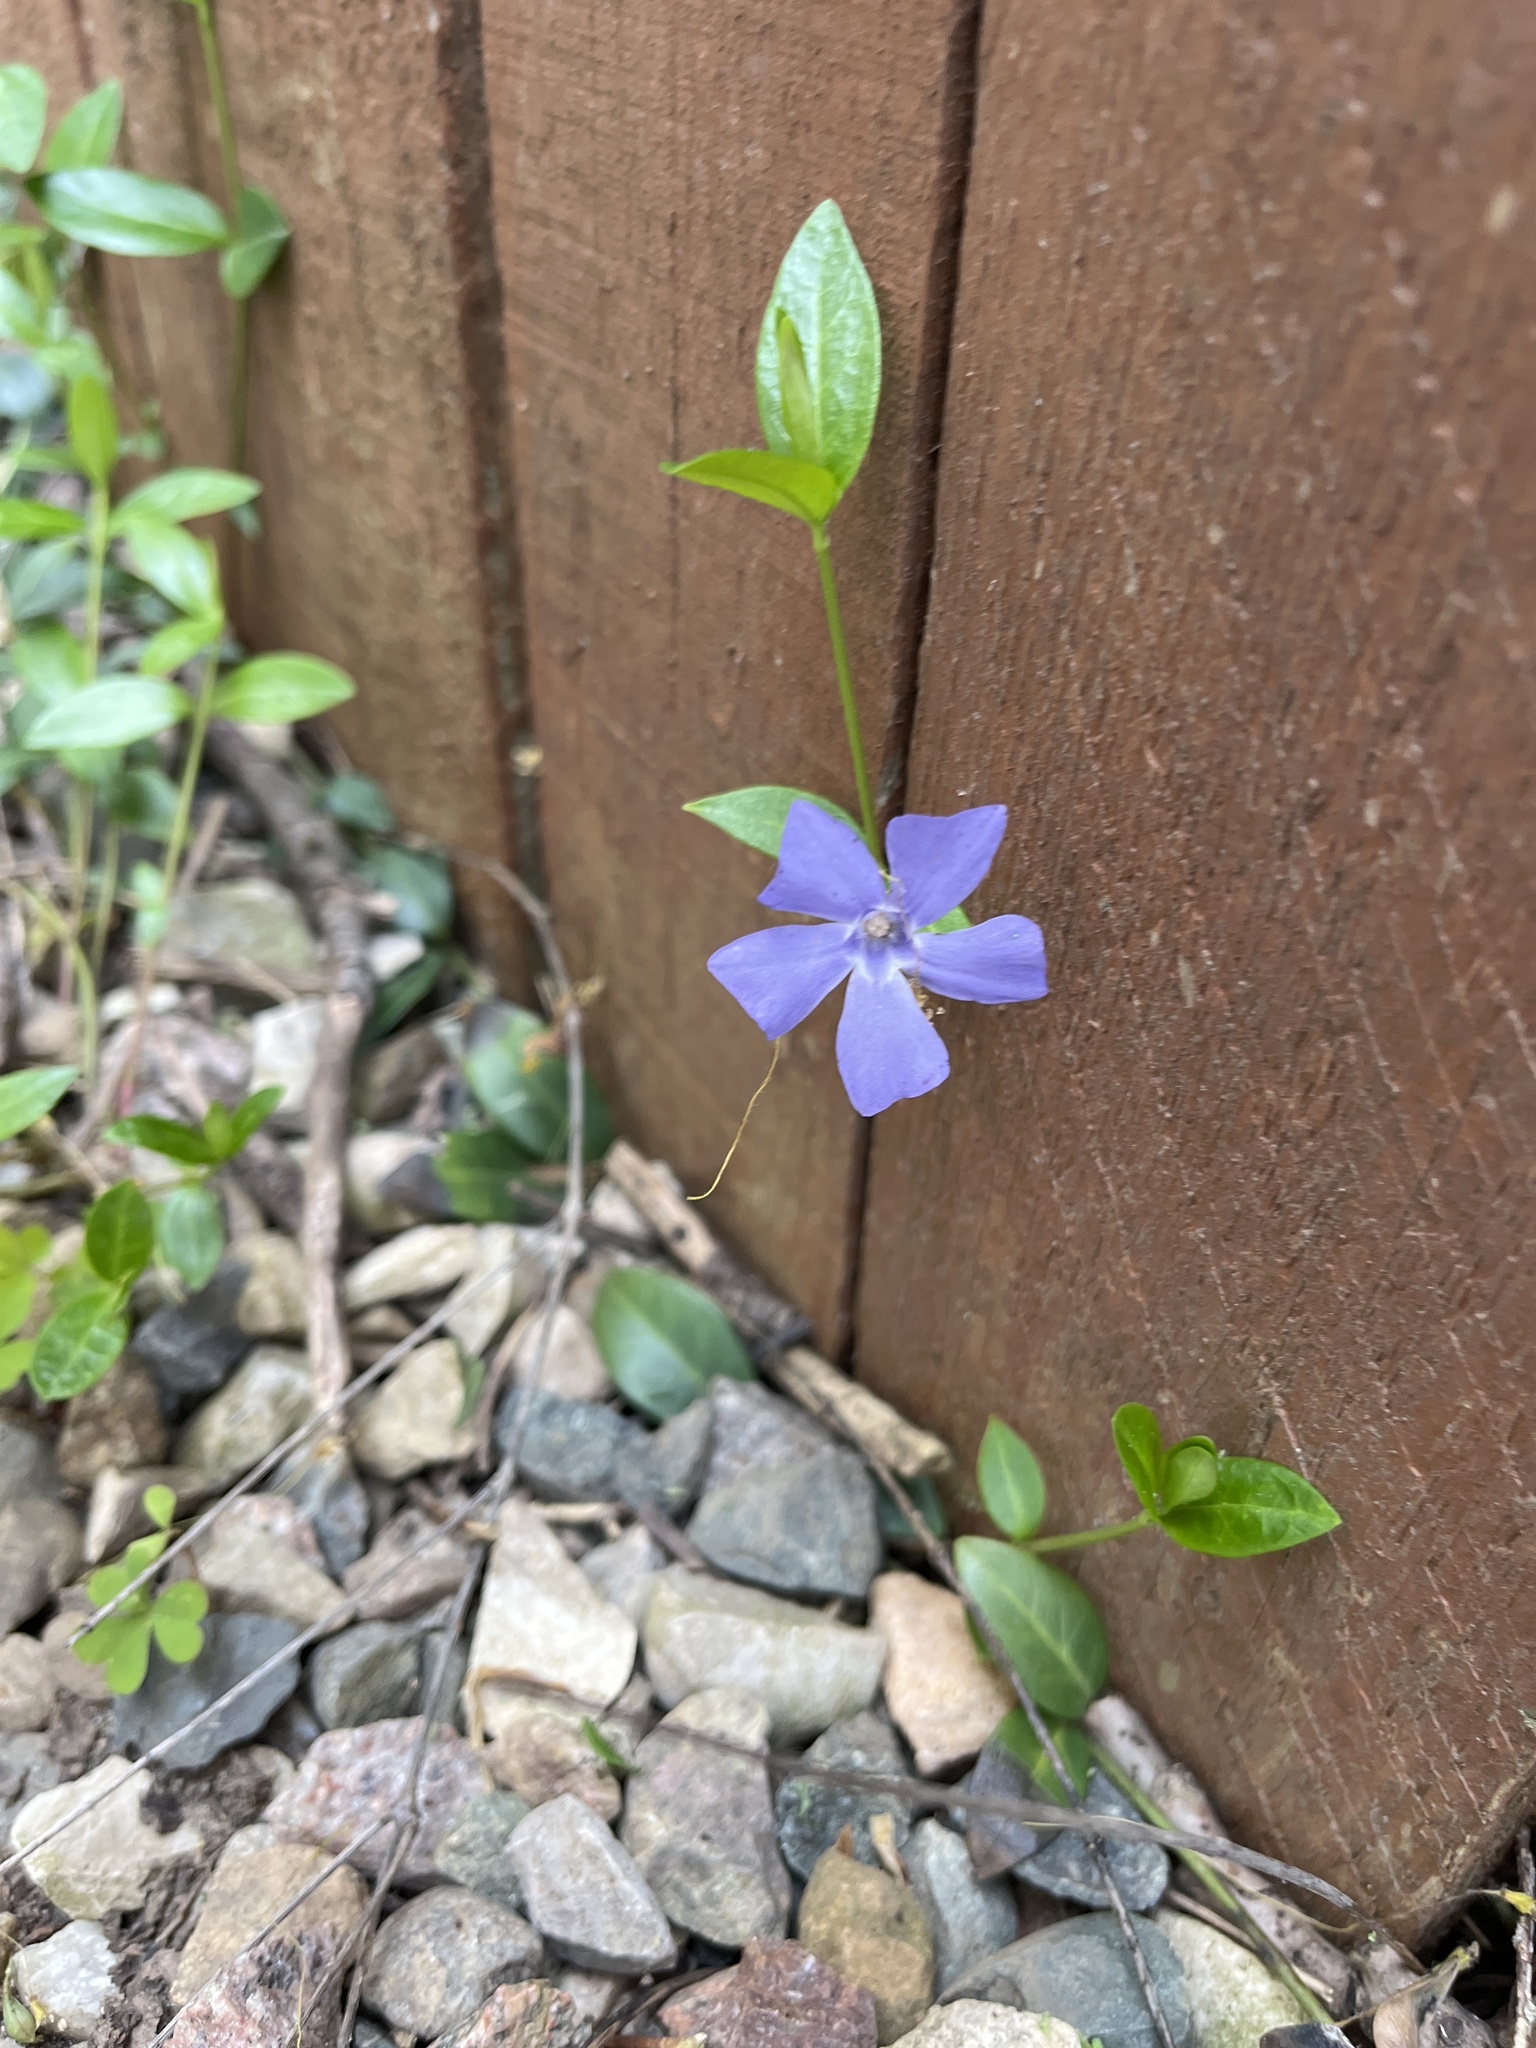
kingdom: Plantae
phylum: Tracheophyta
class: Magnoliopsida
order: Gentianales
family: Apocynaceae
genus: Vinca
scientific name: Vinca minor
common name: Lesser periwinkle
